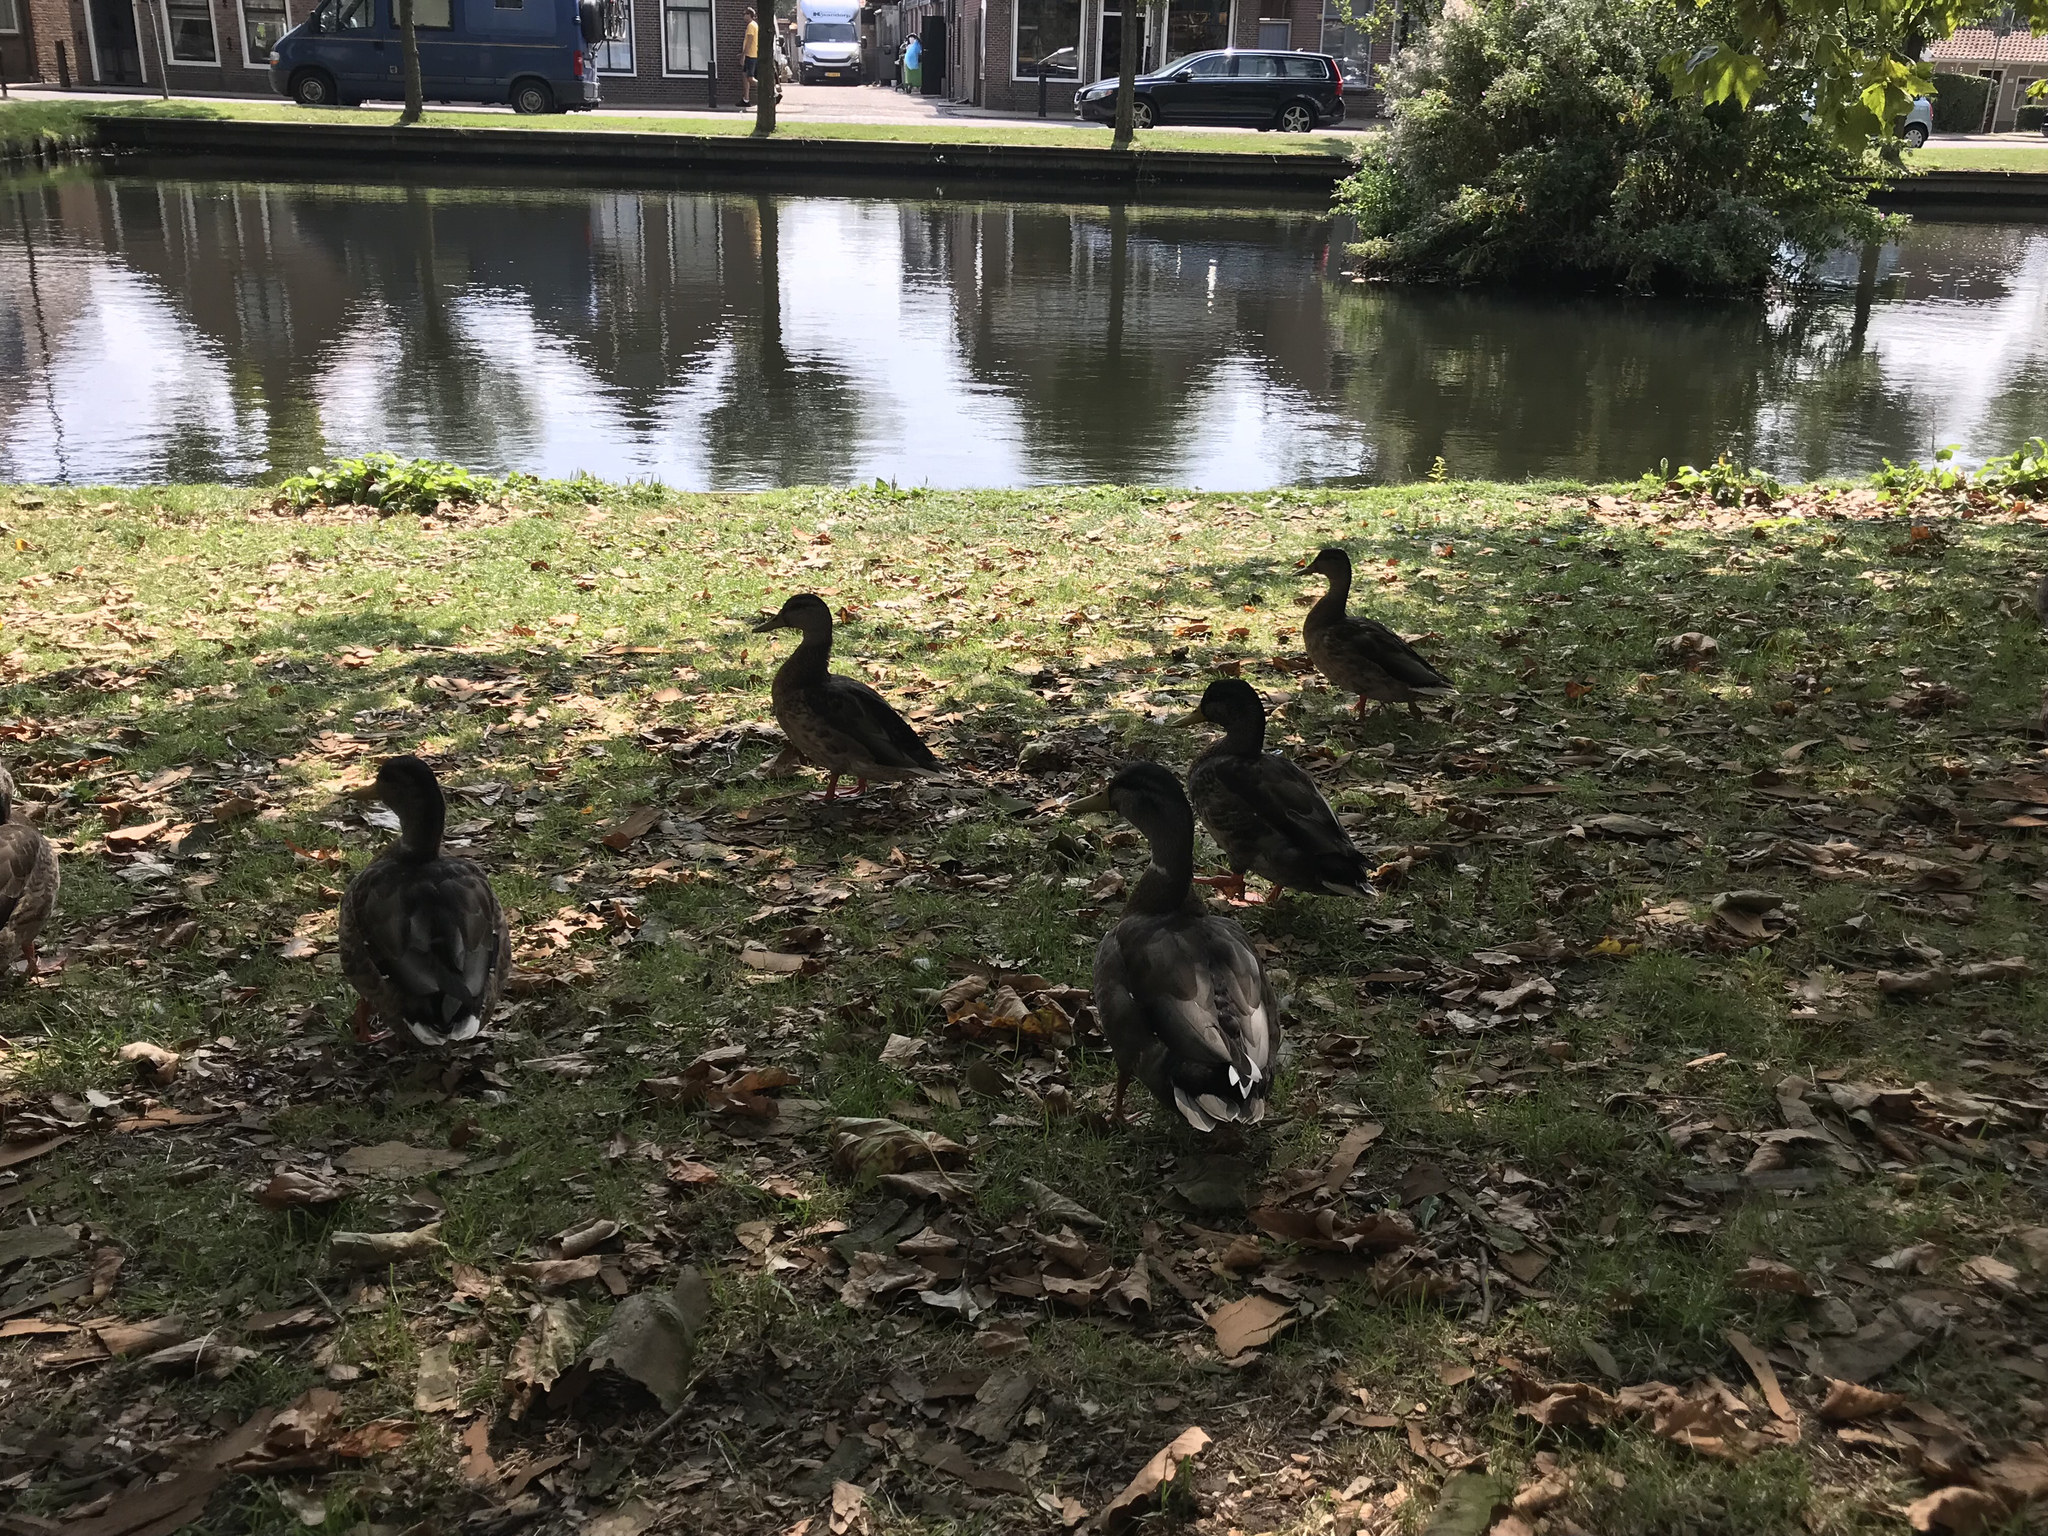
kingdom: Animalia
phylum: Chordata
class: Aves
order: Anseriformes
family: Anatidae
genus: Anas
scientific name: Anas platyrhynchos
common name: Mallard
